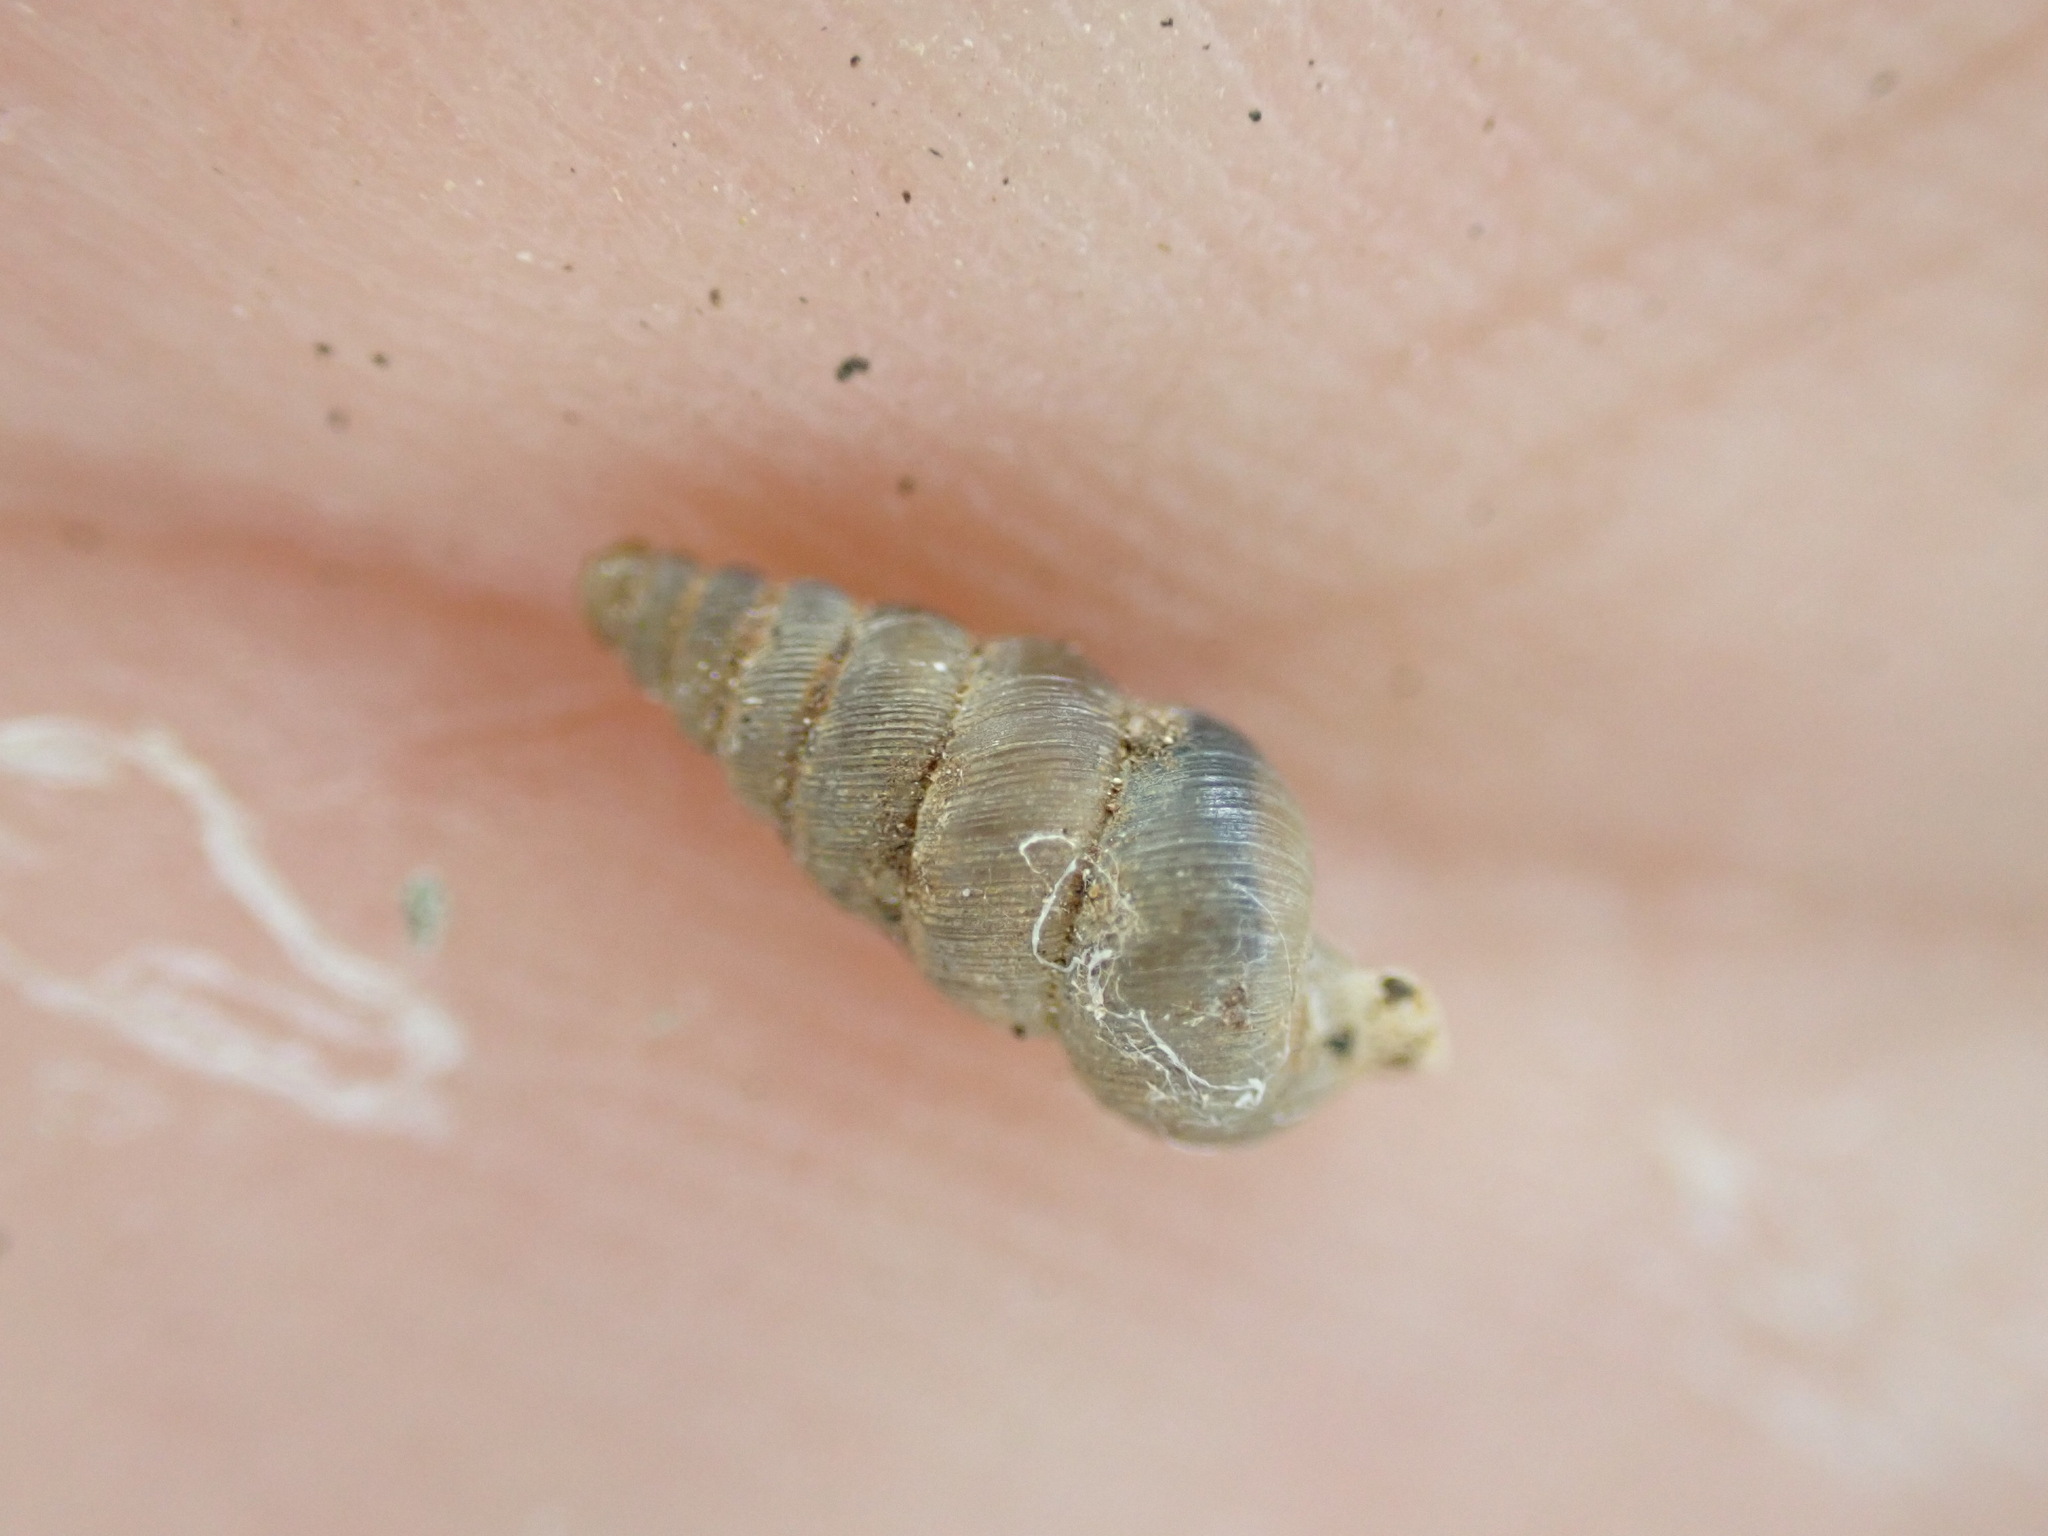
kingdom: Animalia
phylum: Mollusca
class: Gastropoda
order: Architaenioglossa
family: Cochlostomatidae
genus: Cochlostoma
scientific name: Cochlostoma patulum
